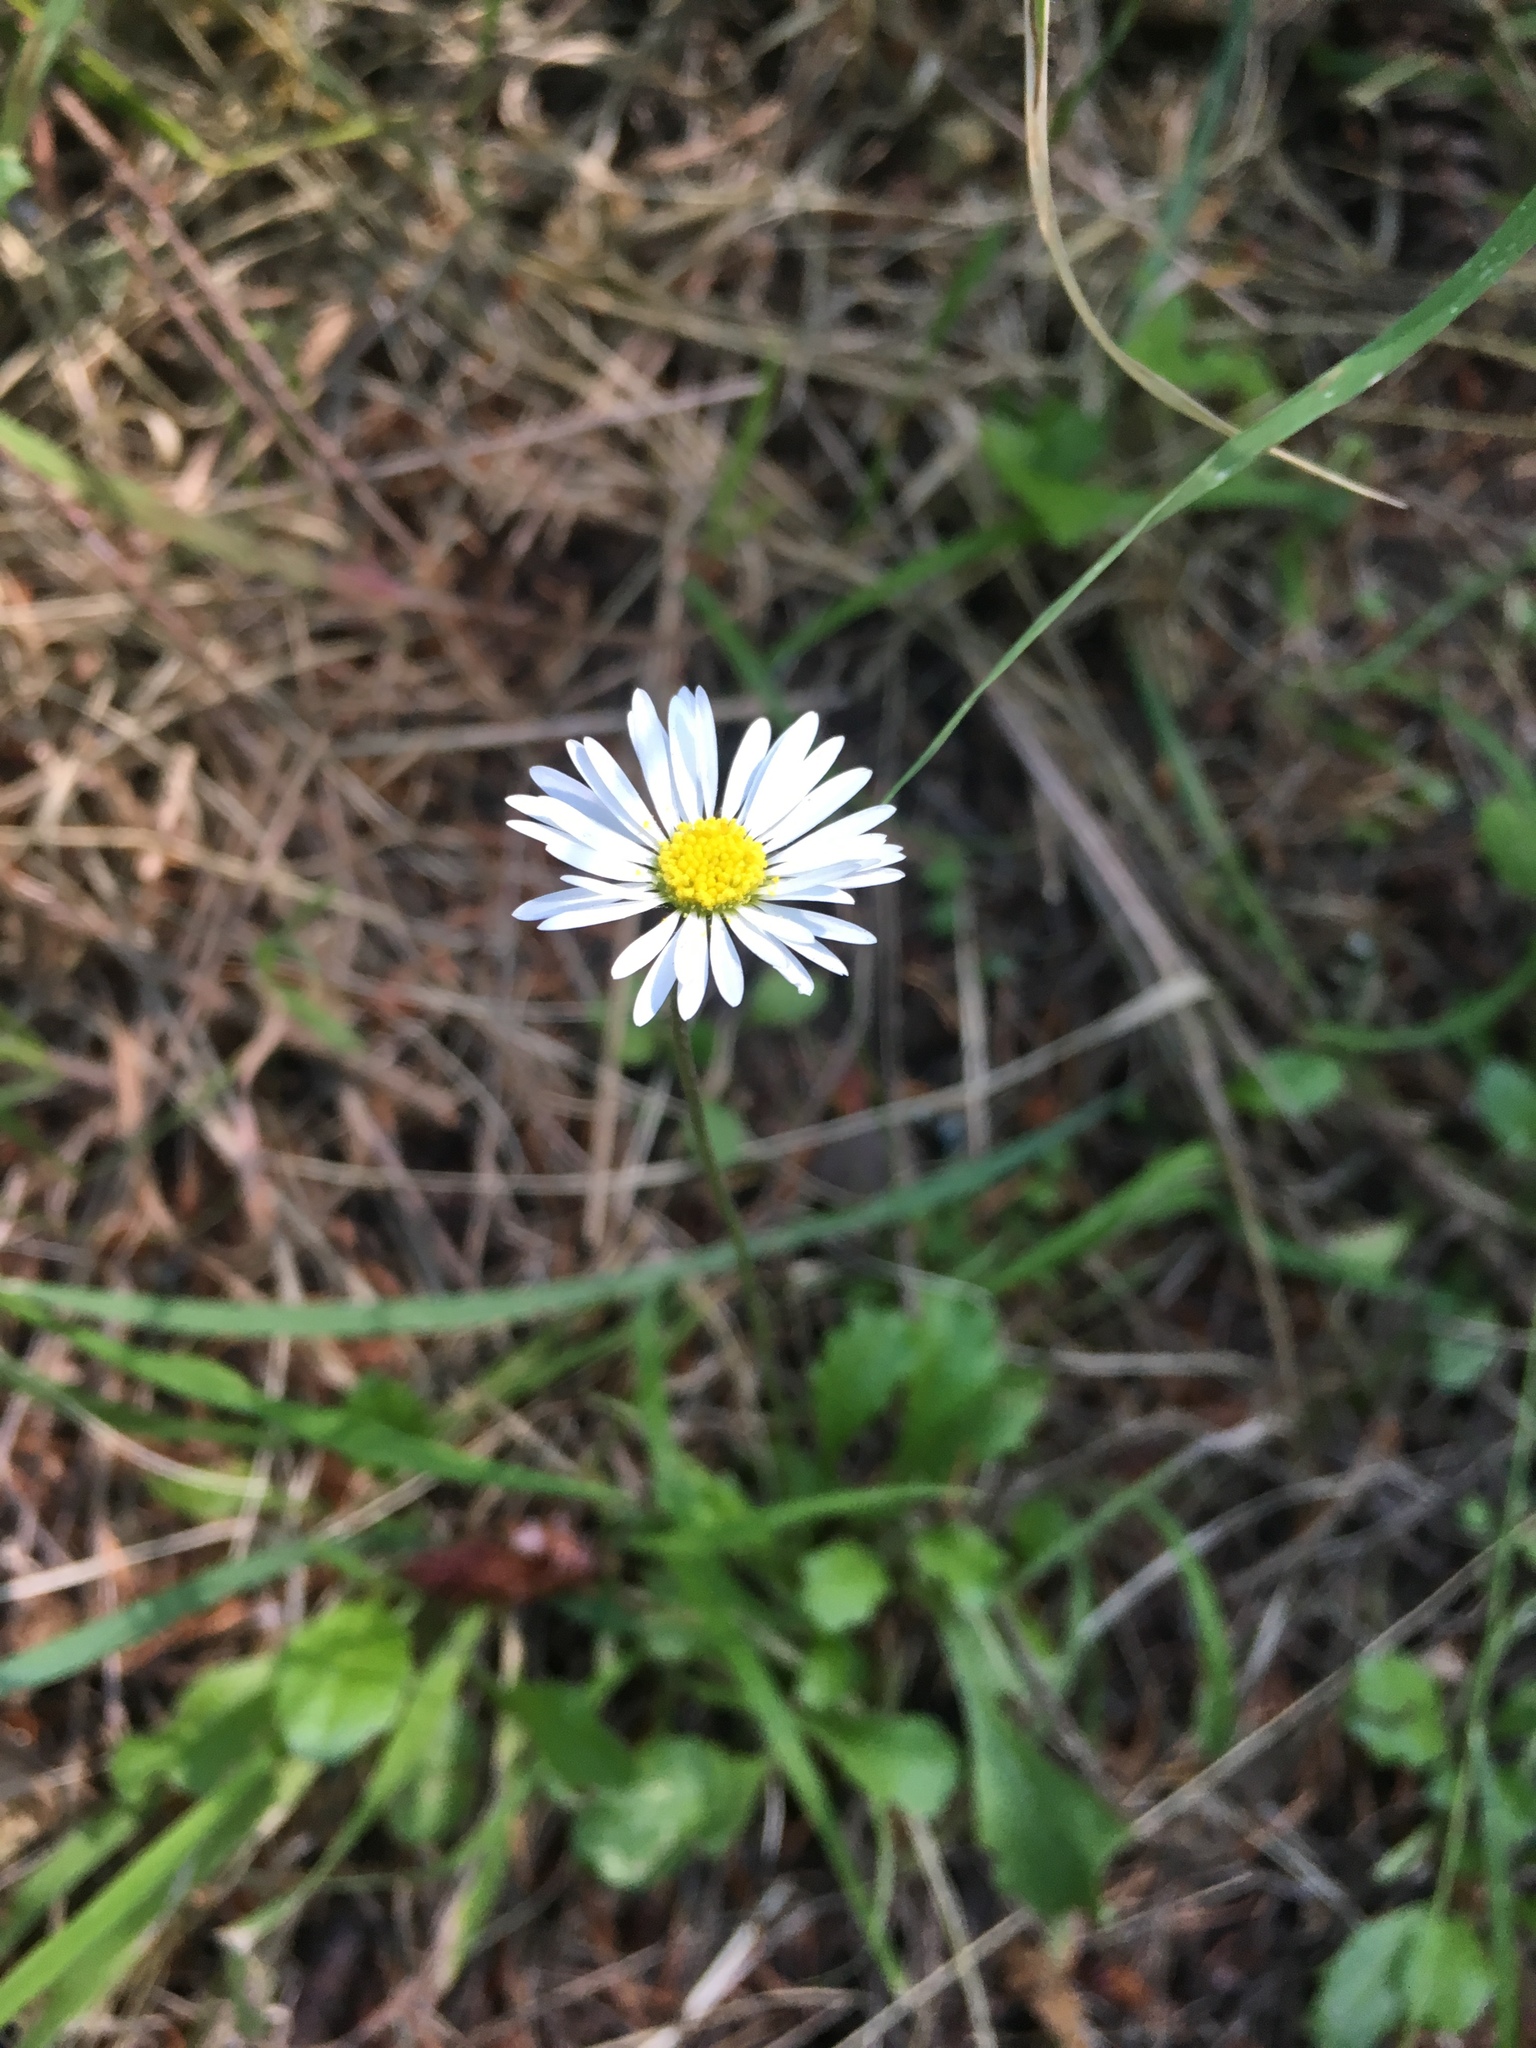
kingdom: Plantae
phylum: Tracheophyta
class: Magnoliopsida
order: Asterales
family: Asteraceae
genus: Bellis
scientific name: Bellis perennis
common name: Lawndaisy
